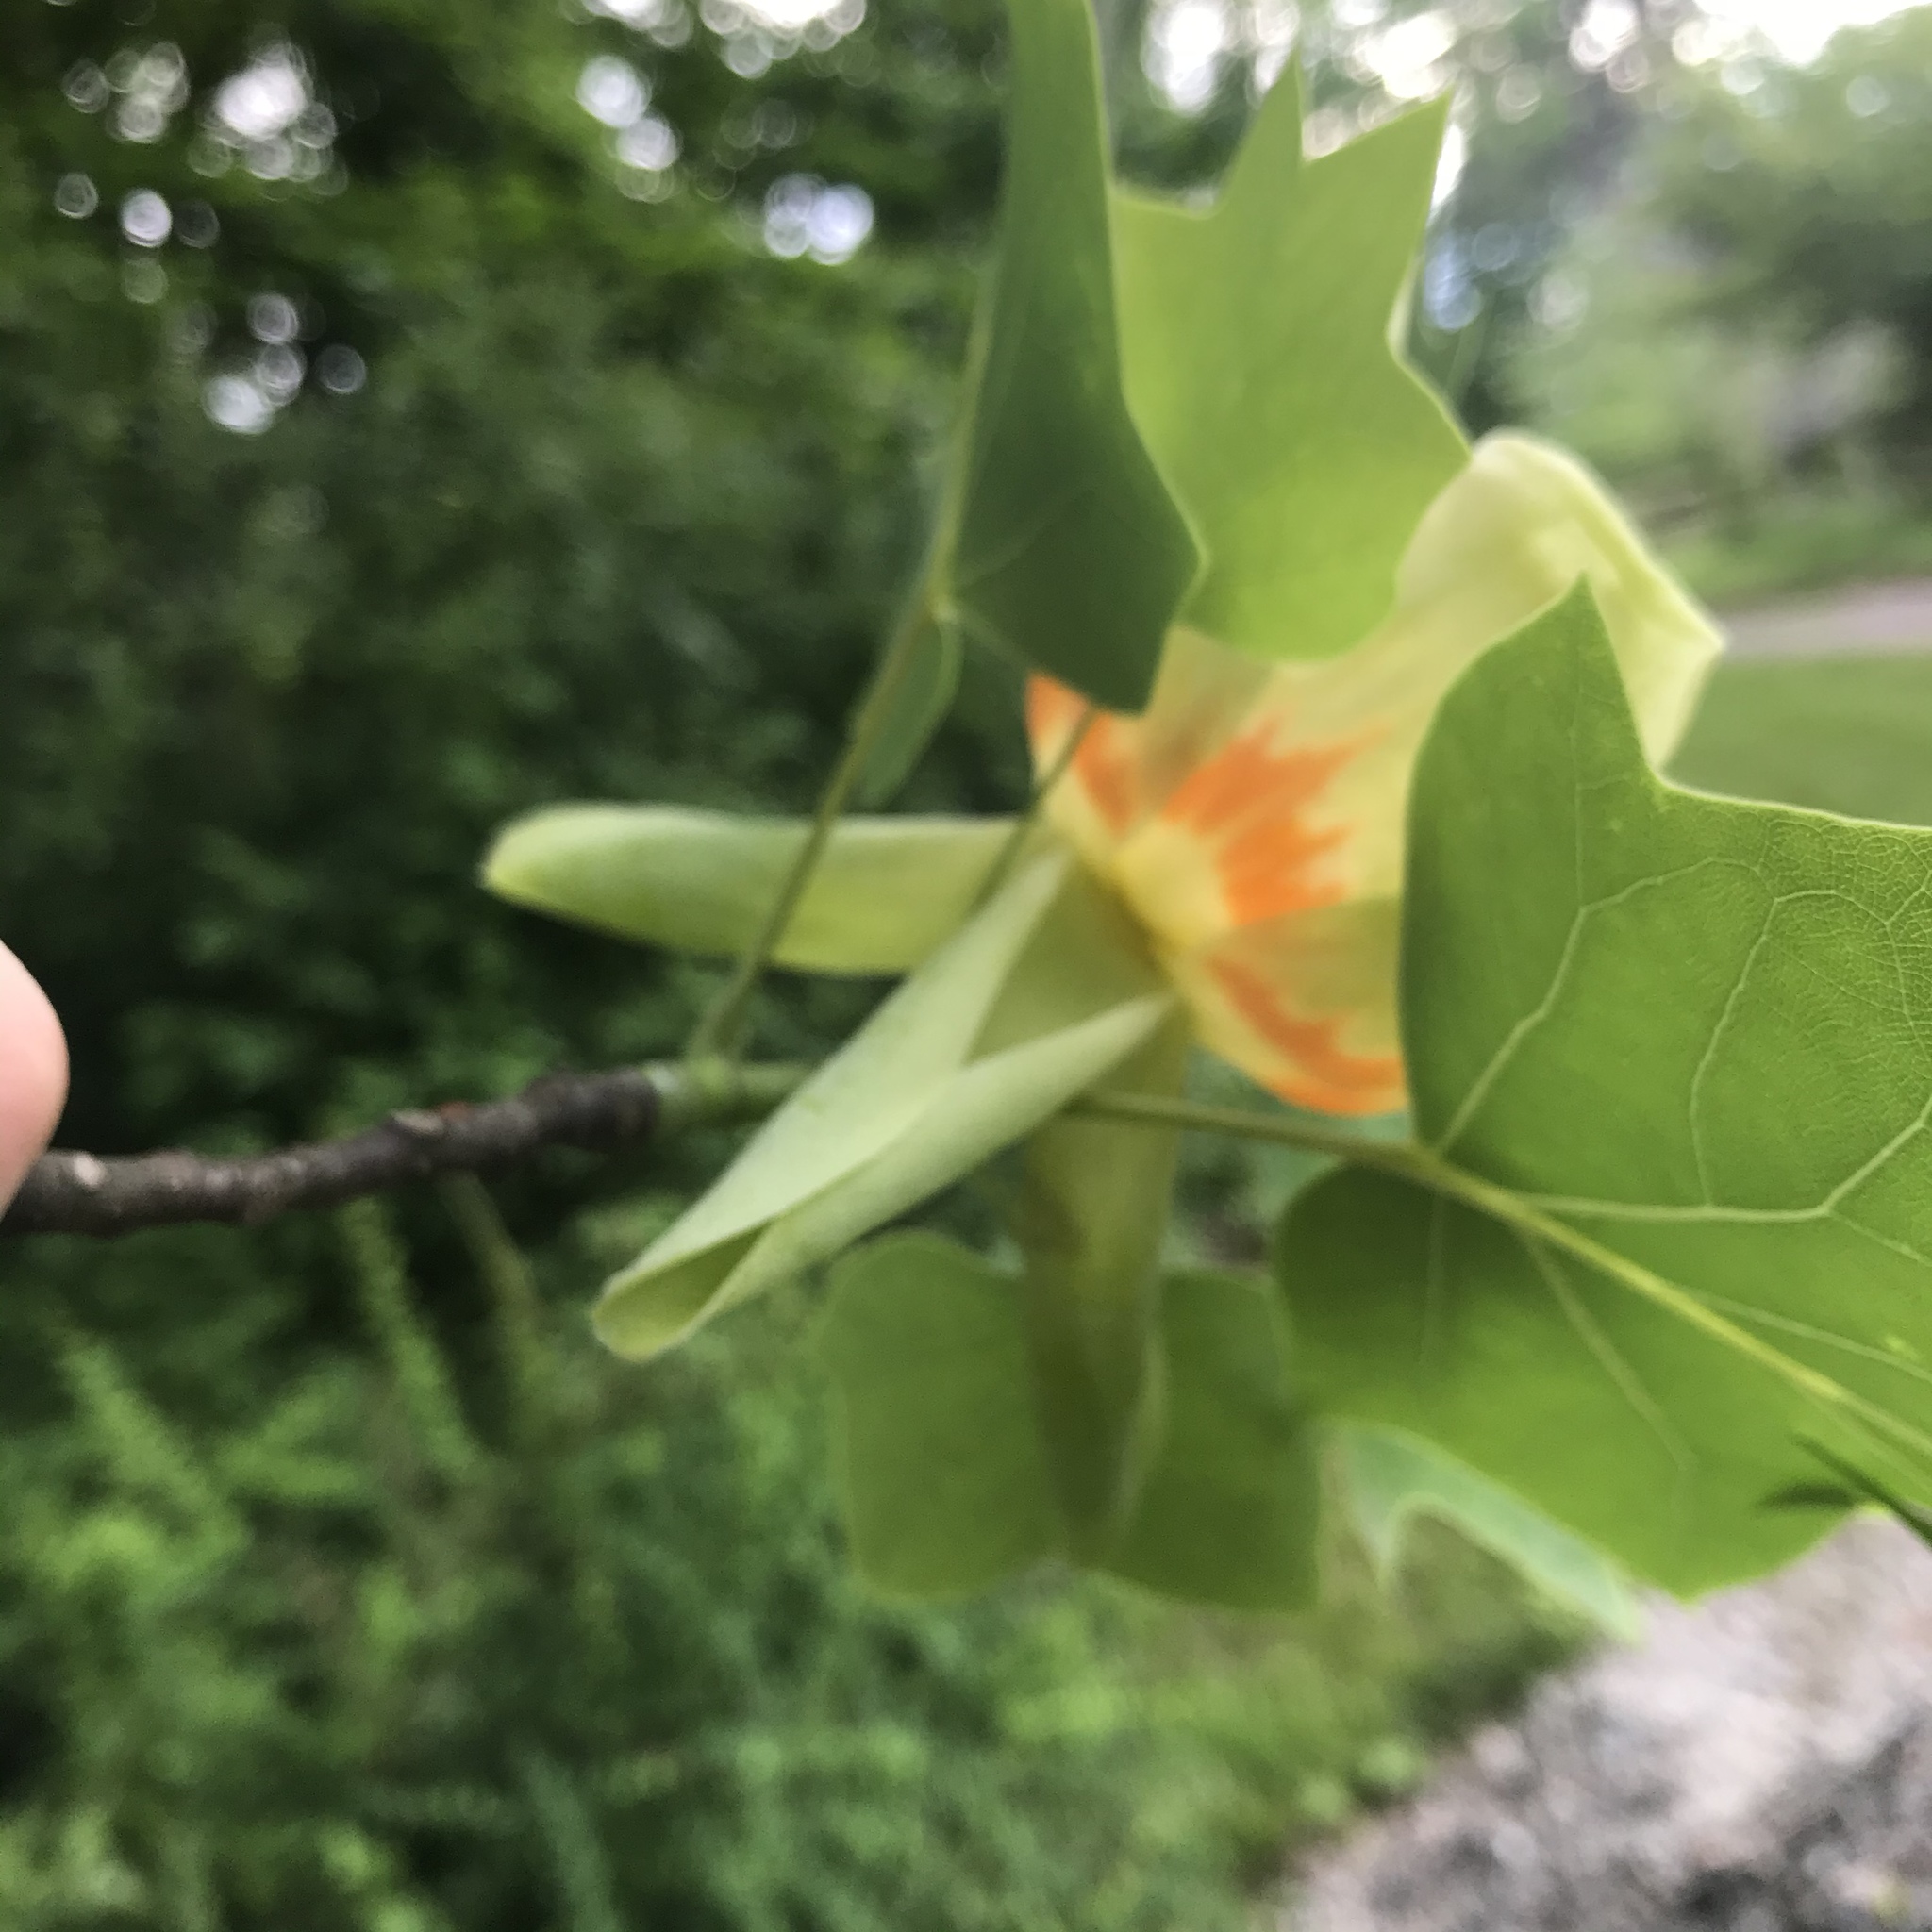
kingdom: Plantae
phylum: Tracheophyta
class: Magnoliopsida
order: Magnoliales
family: Magnoliaceae
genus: Liriodendron
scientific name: Liriodendron tulipifera
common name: Tulip tree
